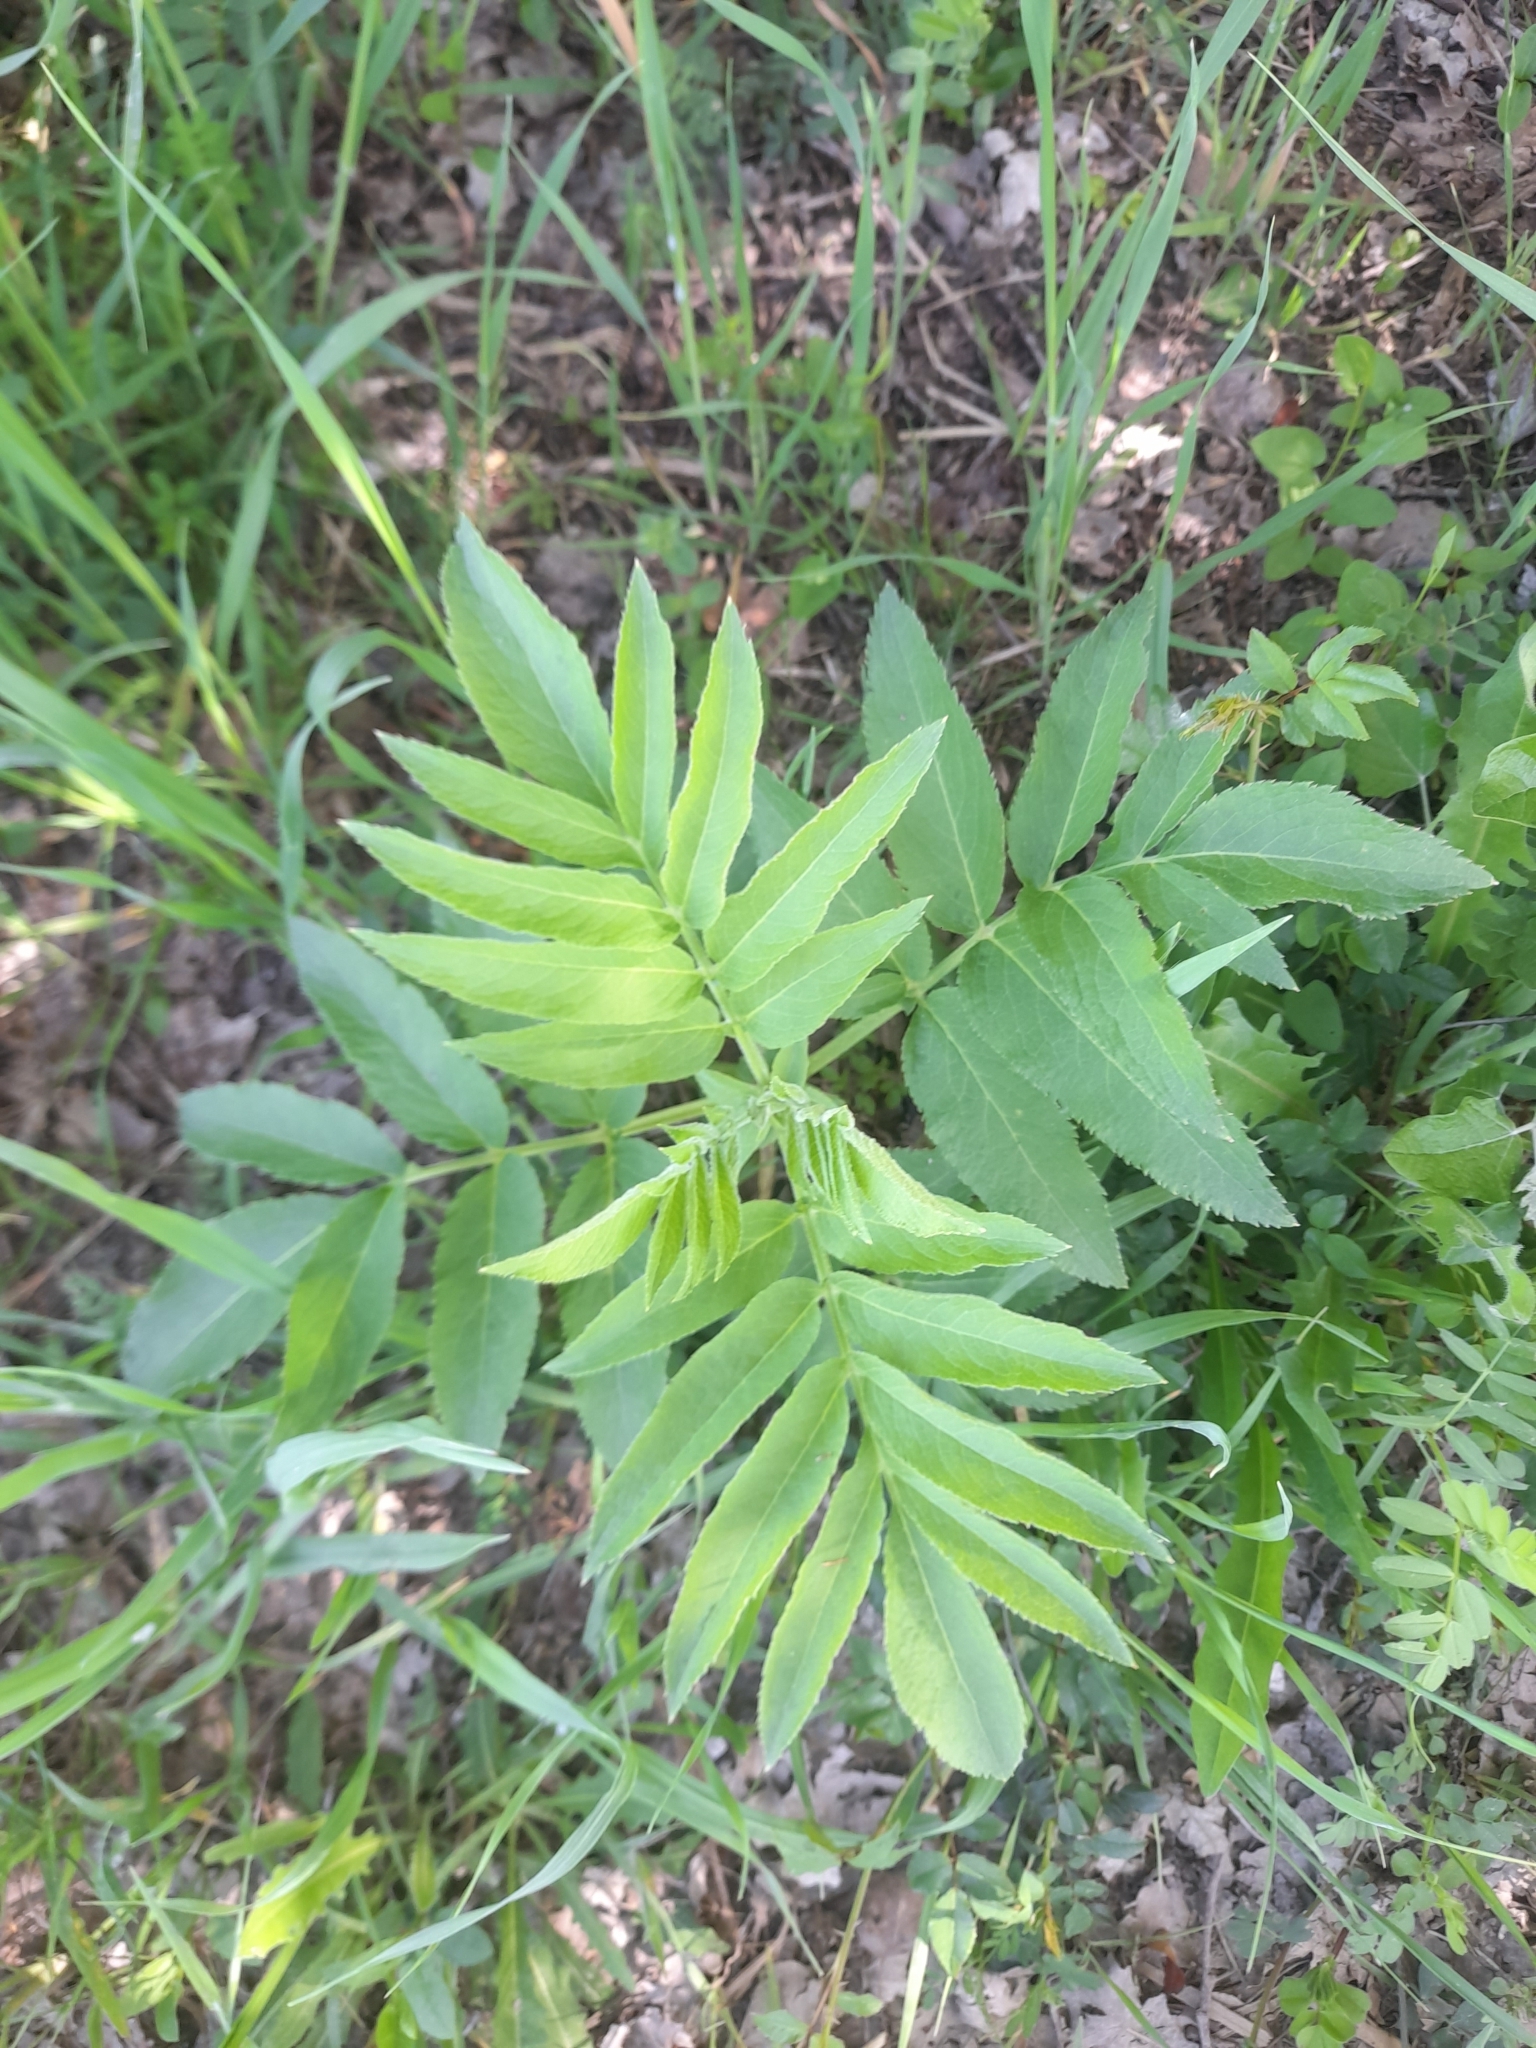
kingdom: Plantae
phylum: Tracheophyta
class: Magnoliopsida
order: Dipsacales
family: Viburnaceae
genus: Sambucus
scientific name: Sambucus ebulus
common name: Dwarf elder
